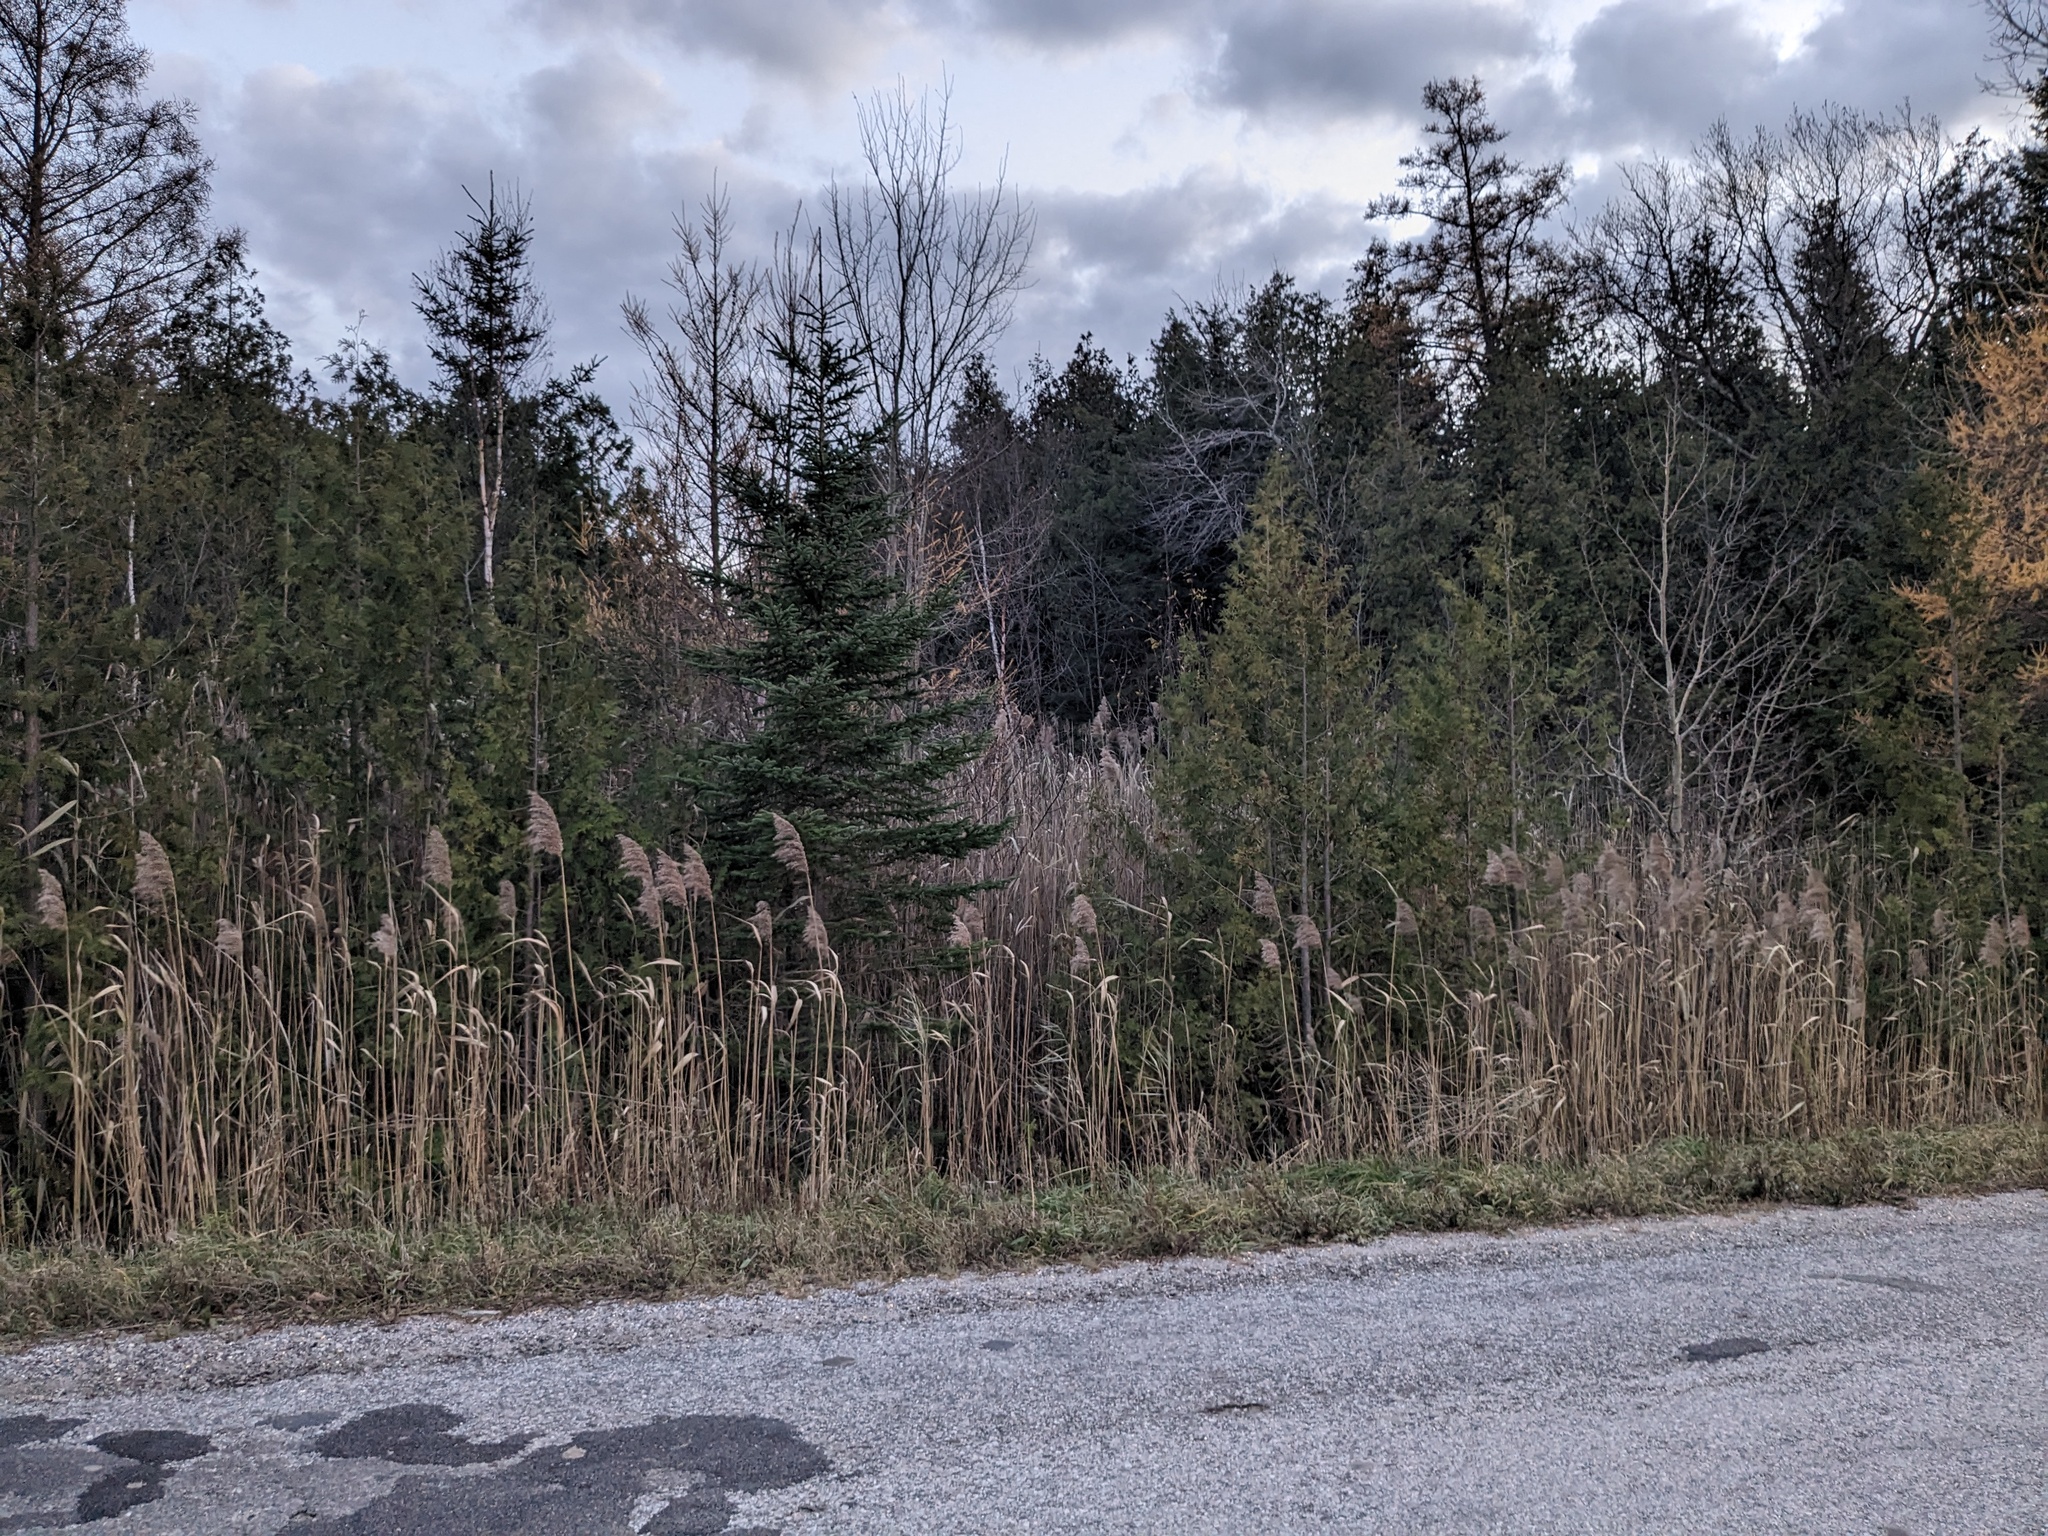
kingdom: Plantae
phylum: Tracheophyta
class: Liliopsida
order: Poales
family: Poaceae
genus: Phragmites
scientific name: Phragmites australis
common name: Common reed
